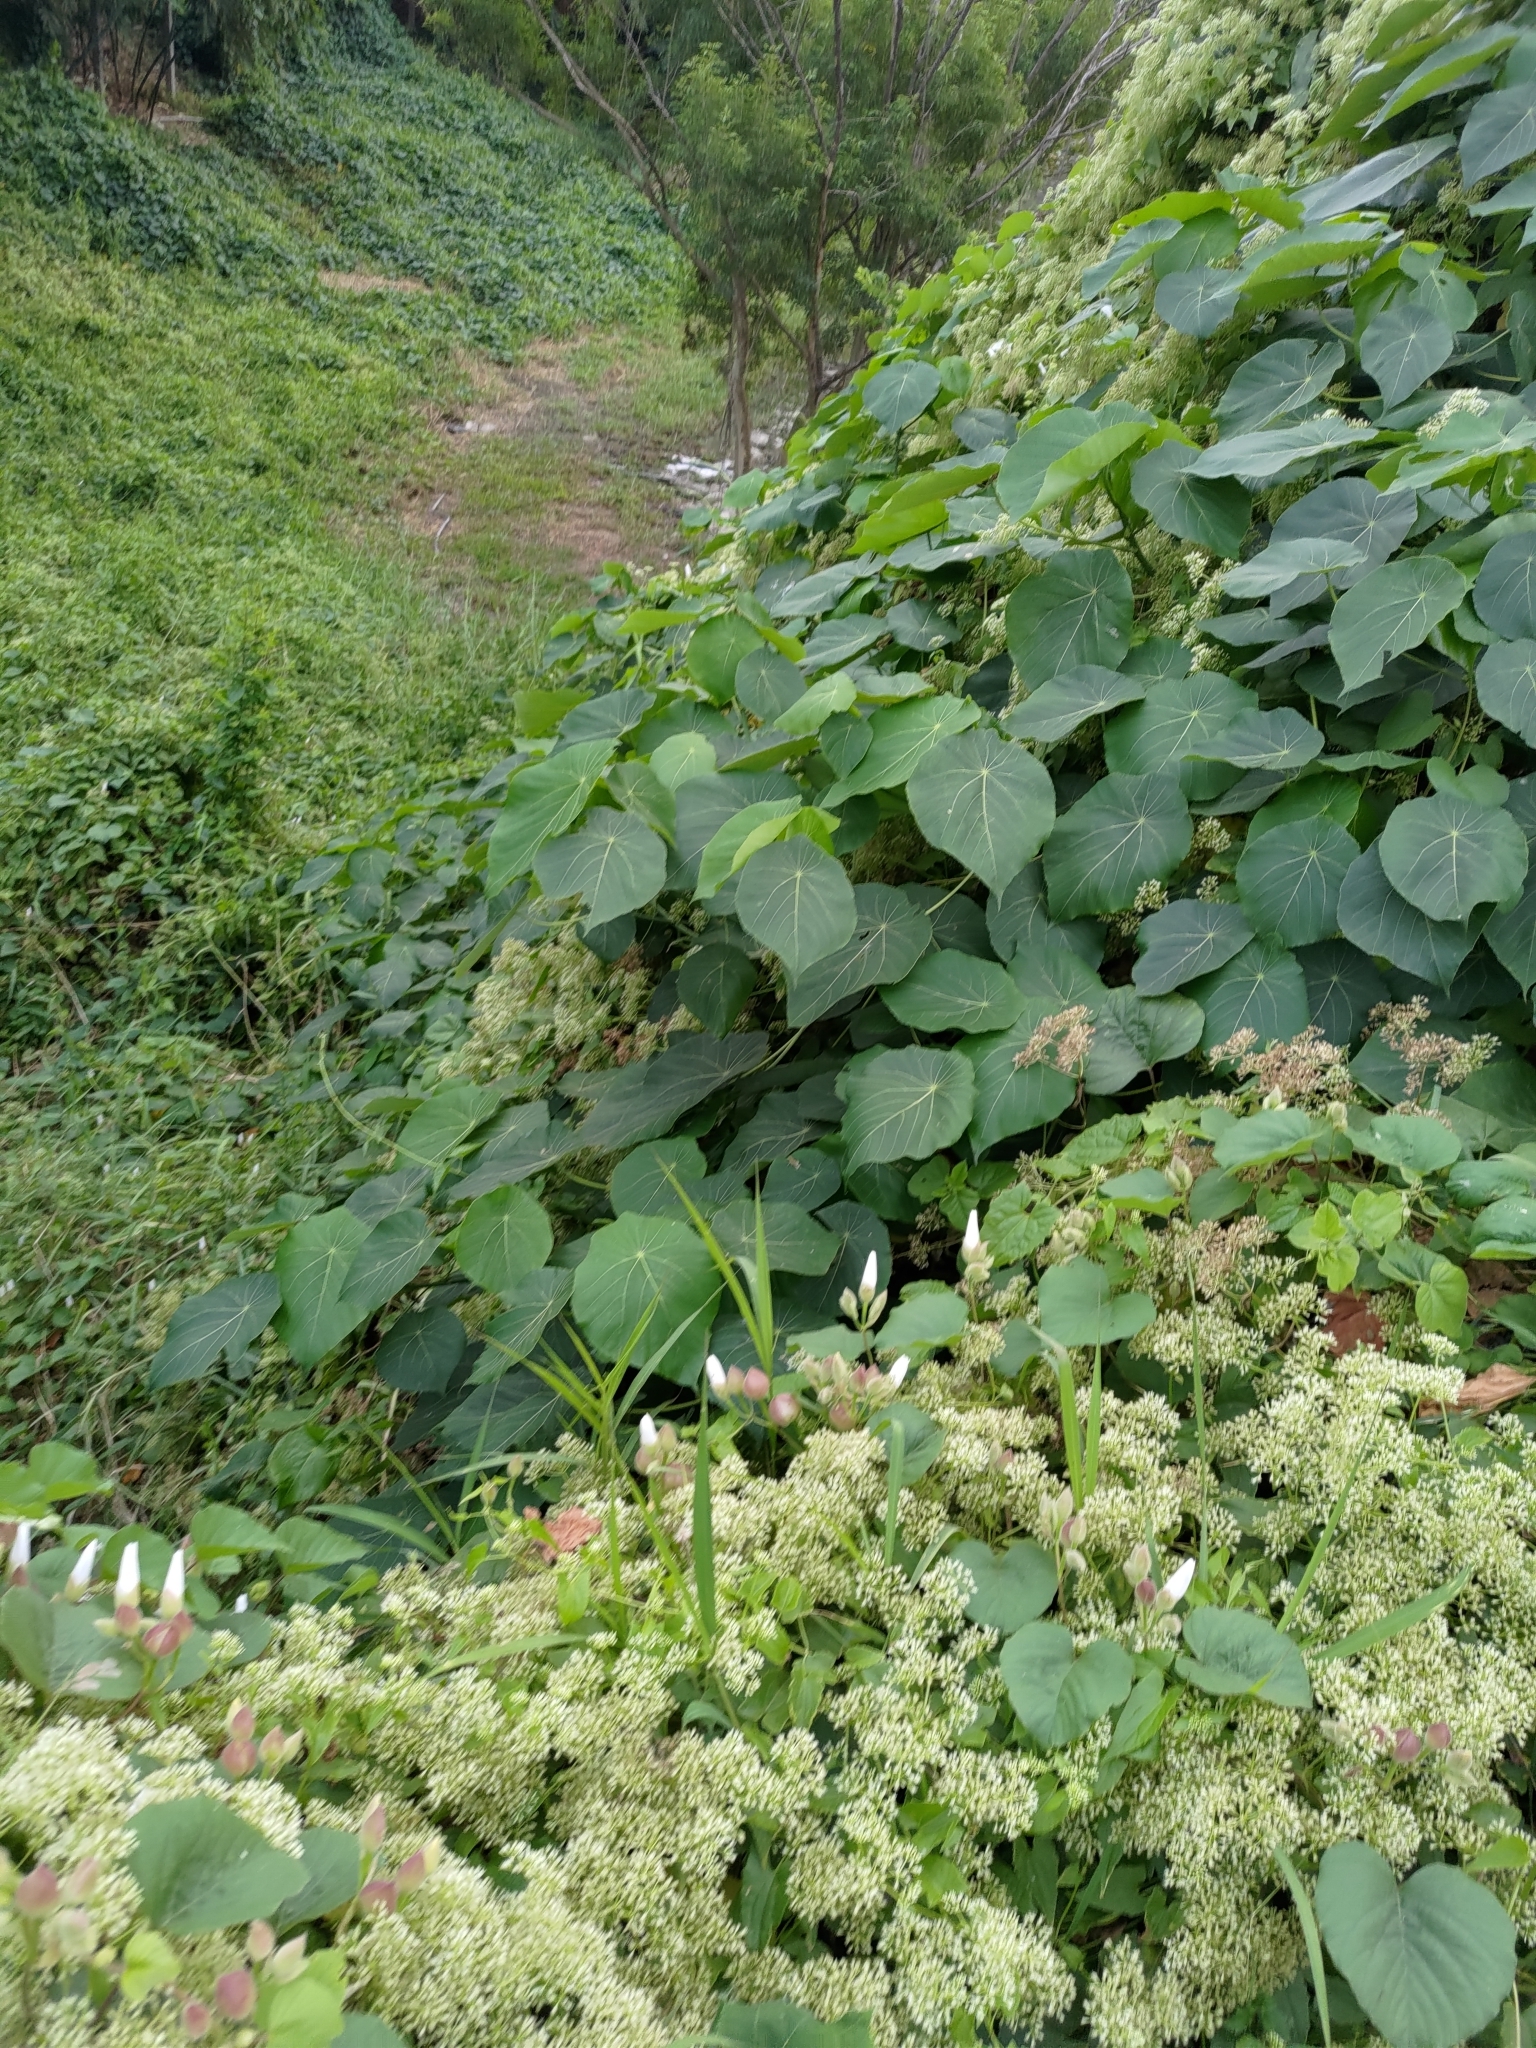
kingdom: Plantae
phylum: Tracheophyta
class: Magnoliopsida
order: Malpighiales
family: Euphorbiaceae
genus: Macaranga
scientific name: Macaranga tanarius
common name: Parasol leaf tree
